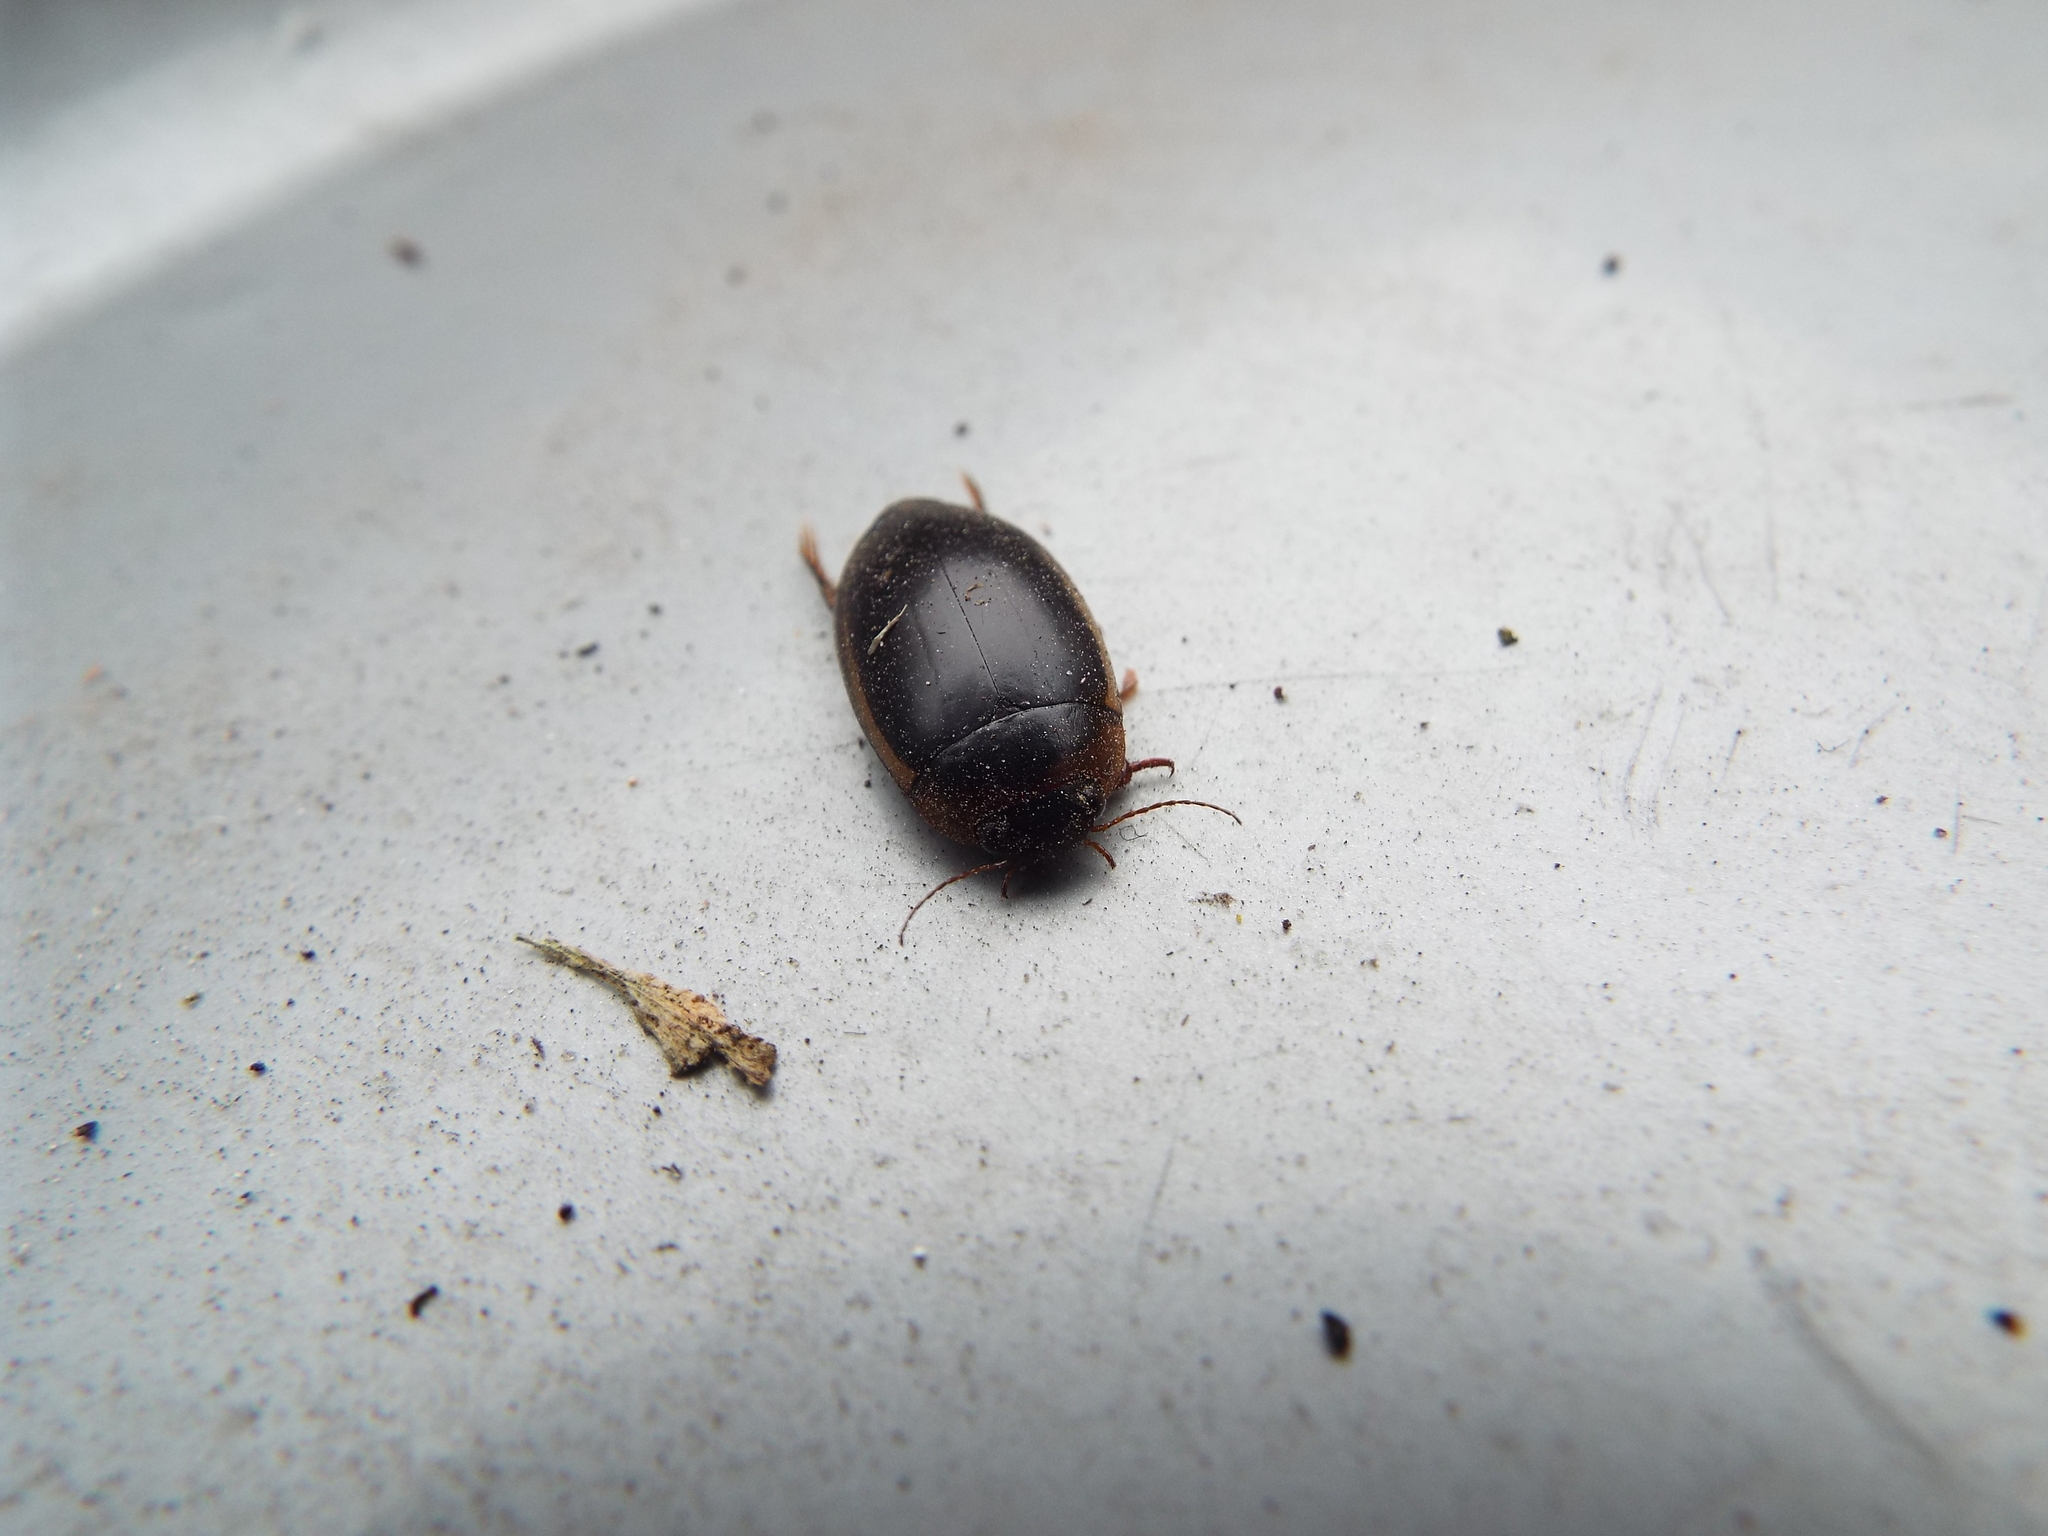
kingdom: Animalia
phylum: Arthropoda
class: Insecta
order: Coleoptera
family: Dytiscidae
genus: Hydaticus
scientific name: Hydaticus seminiger
